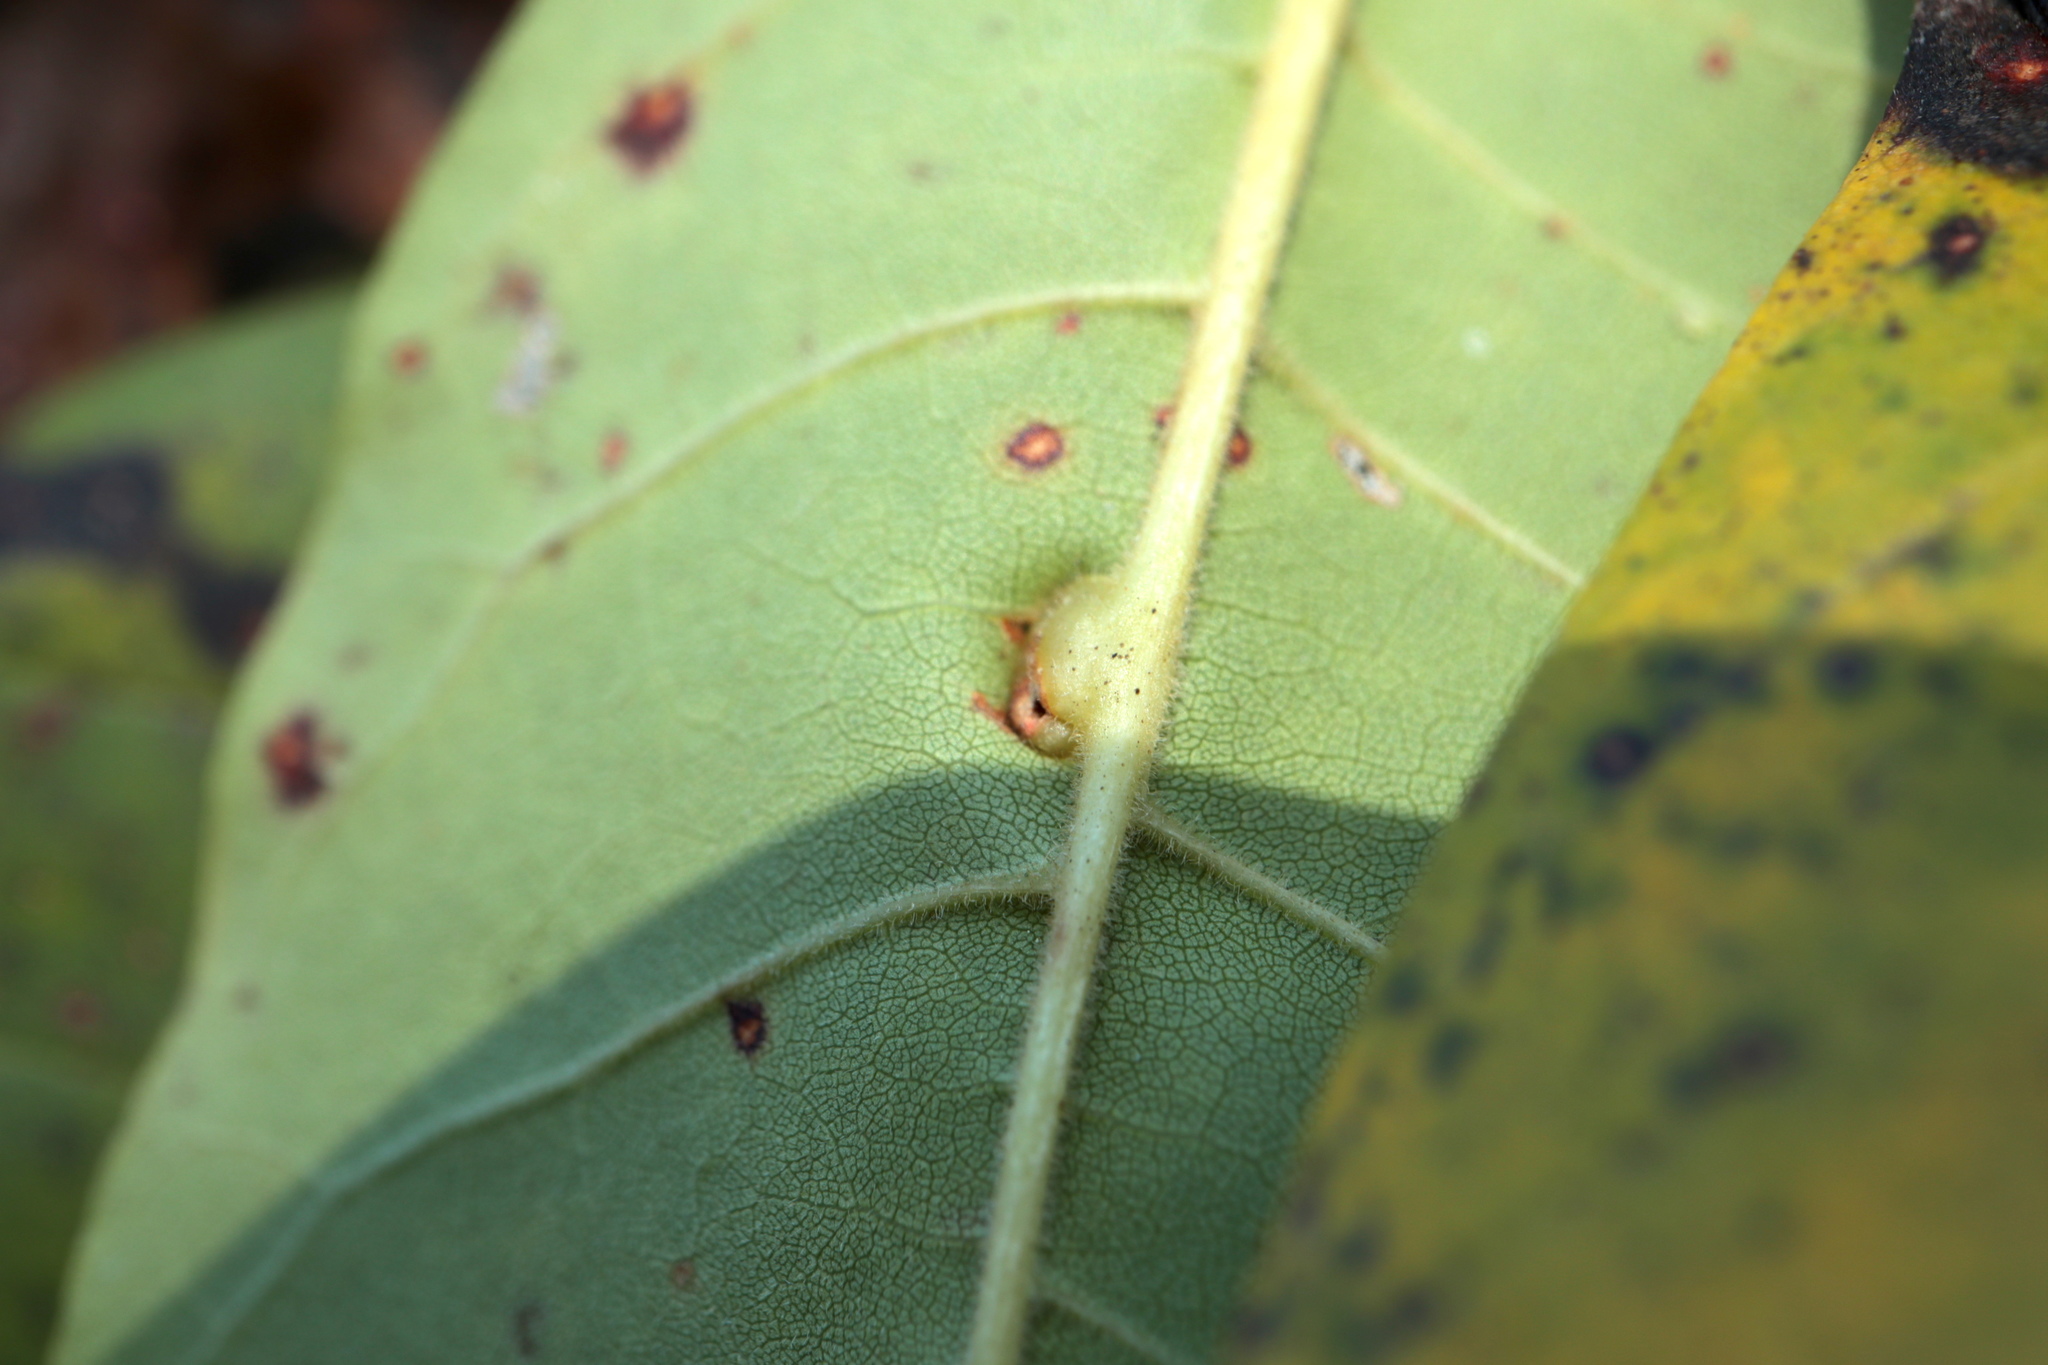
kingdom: Animalia
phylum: Arthropoda
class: Insecta
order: Diptera
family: Cecidomyiidae
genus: Dasineura
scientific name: Dasineura pellex
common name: Ash bullet gall midge
